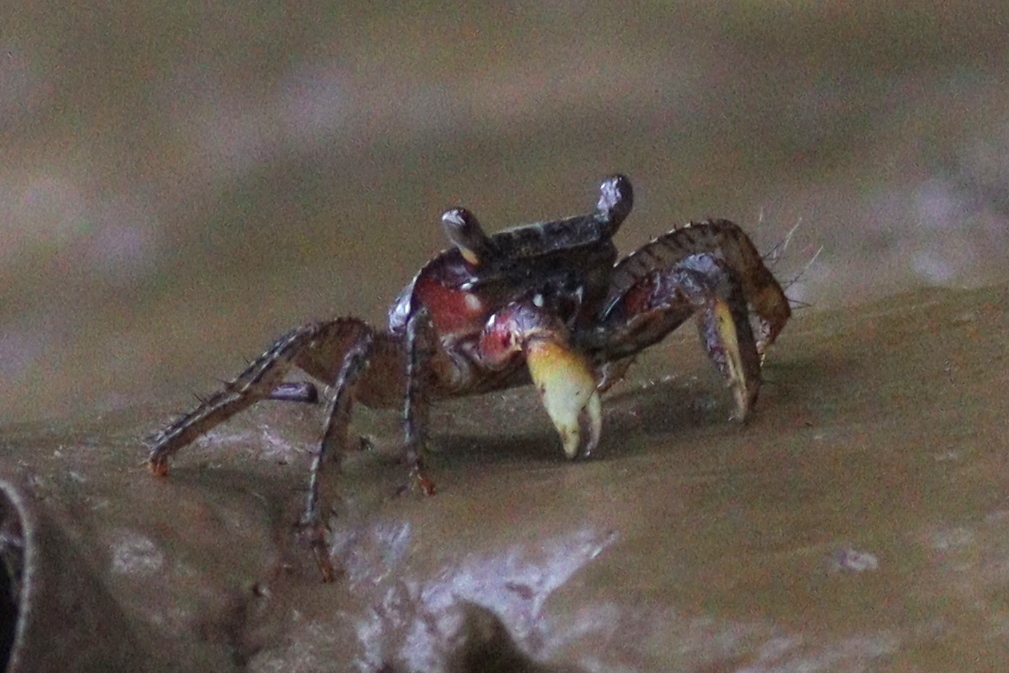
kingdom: Animalia
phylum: Arthropoda
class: Malacostraca
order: Decapoda
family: Grapsidae
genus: Goniopsis
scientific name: Goniopsis pulchra
